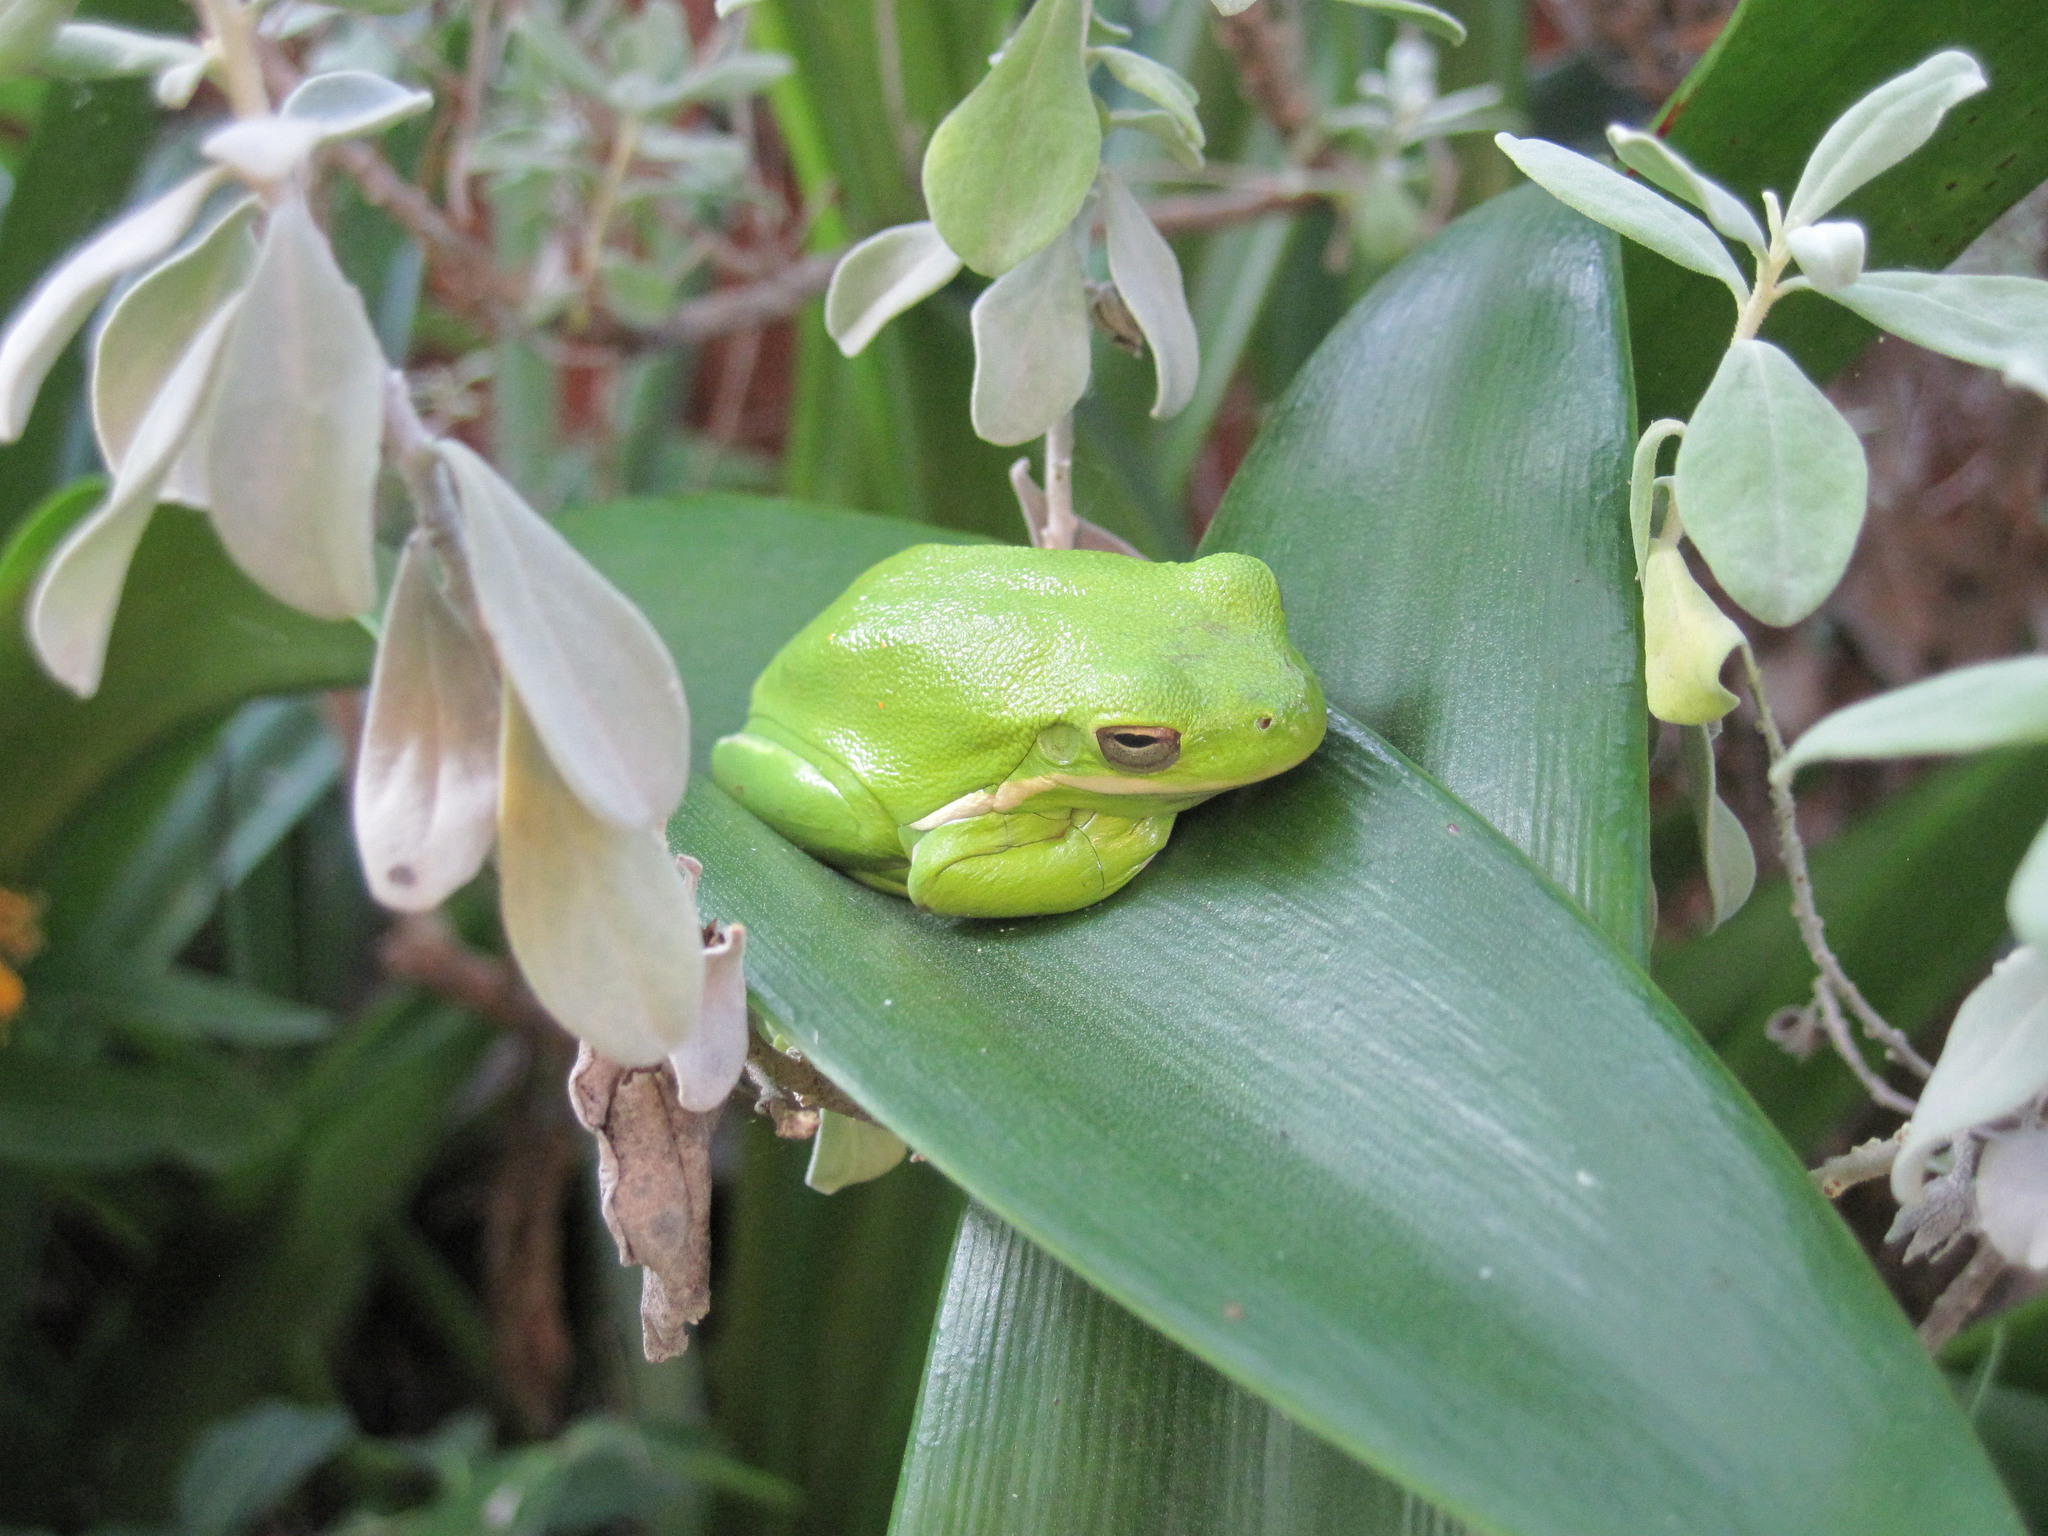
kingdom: Animalia
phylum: Chordata
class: Amphibia
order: Anura
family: Hylidae
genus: Dryophytes
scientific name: Dryophytes cinereus
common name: Green treefrog
